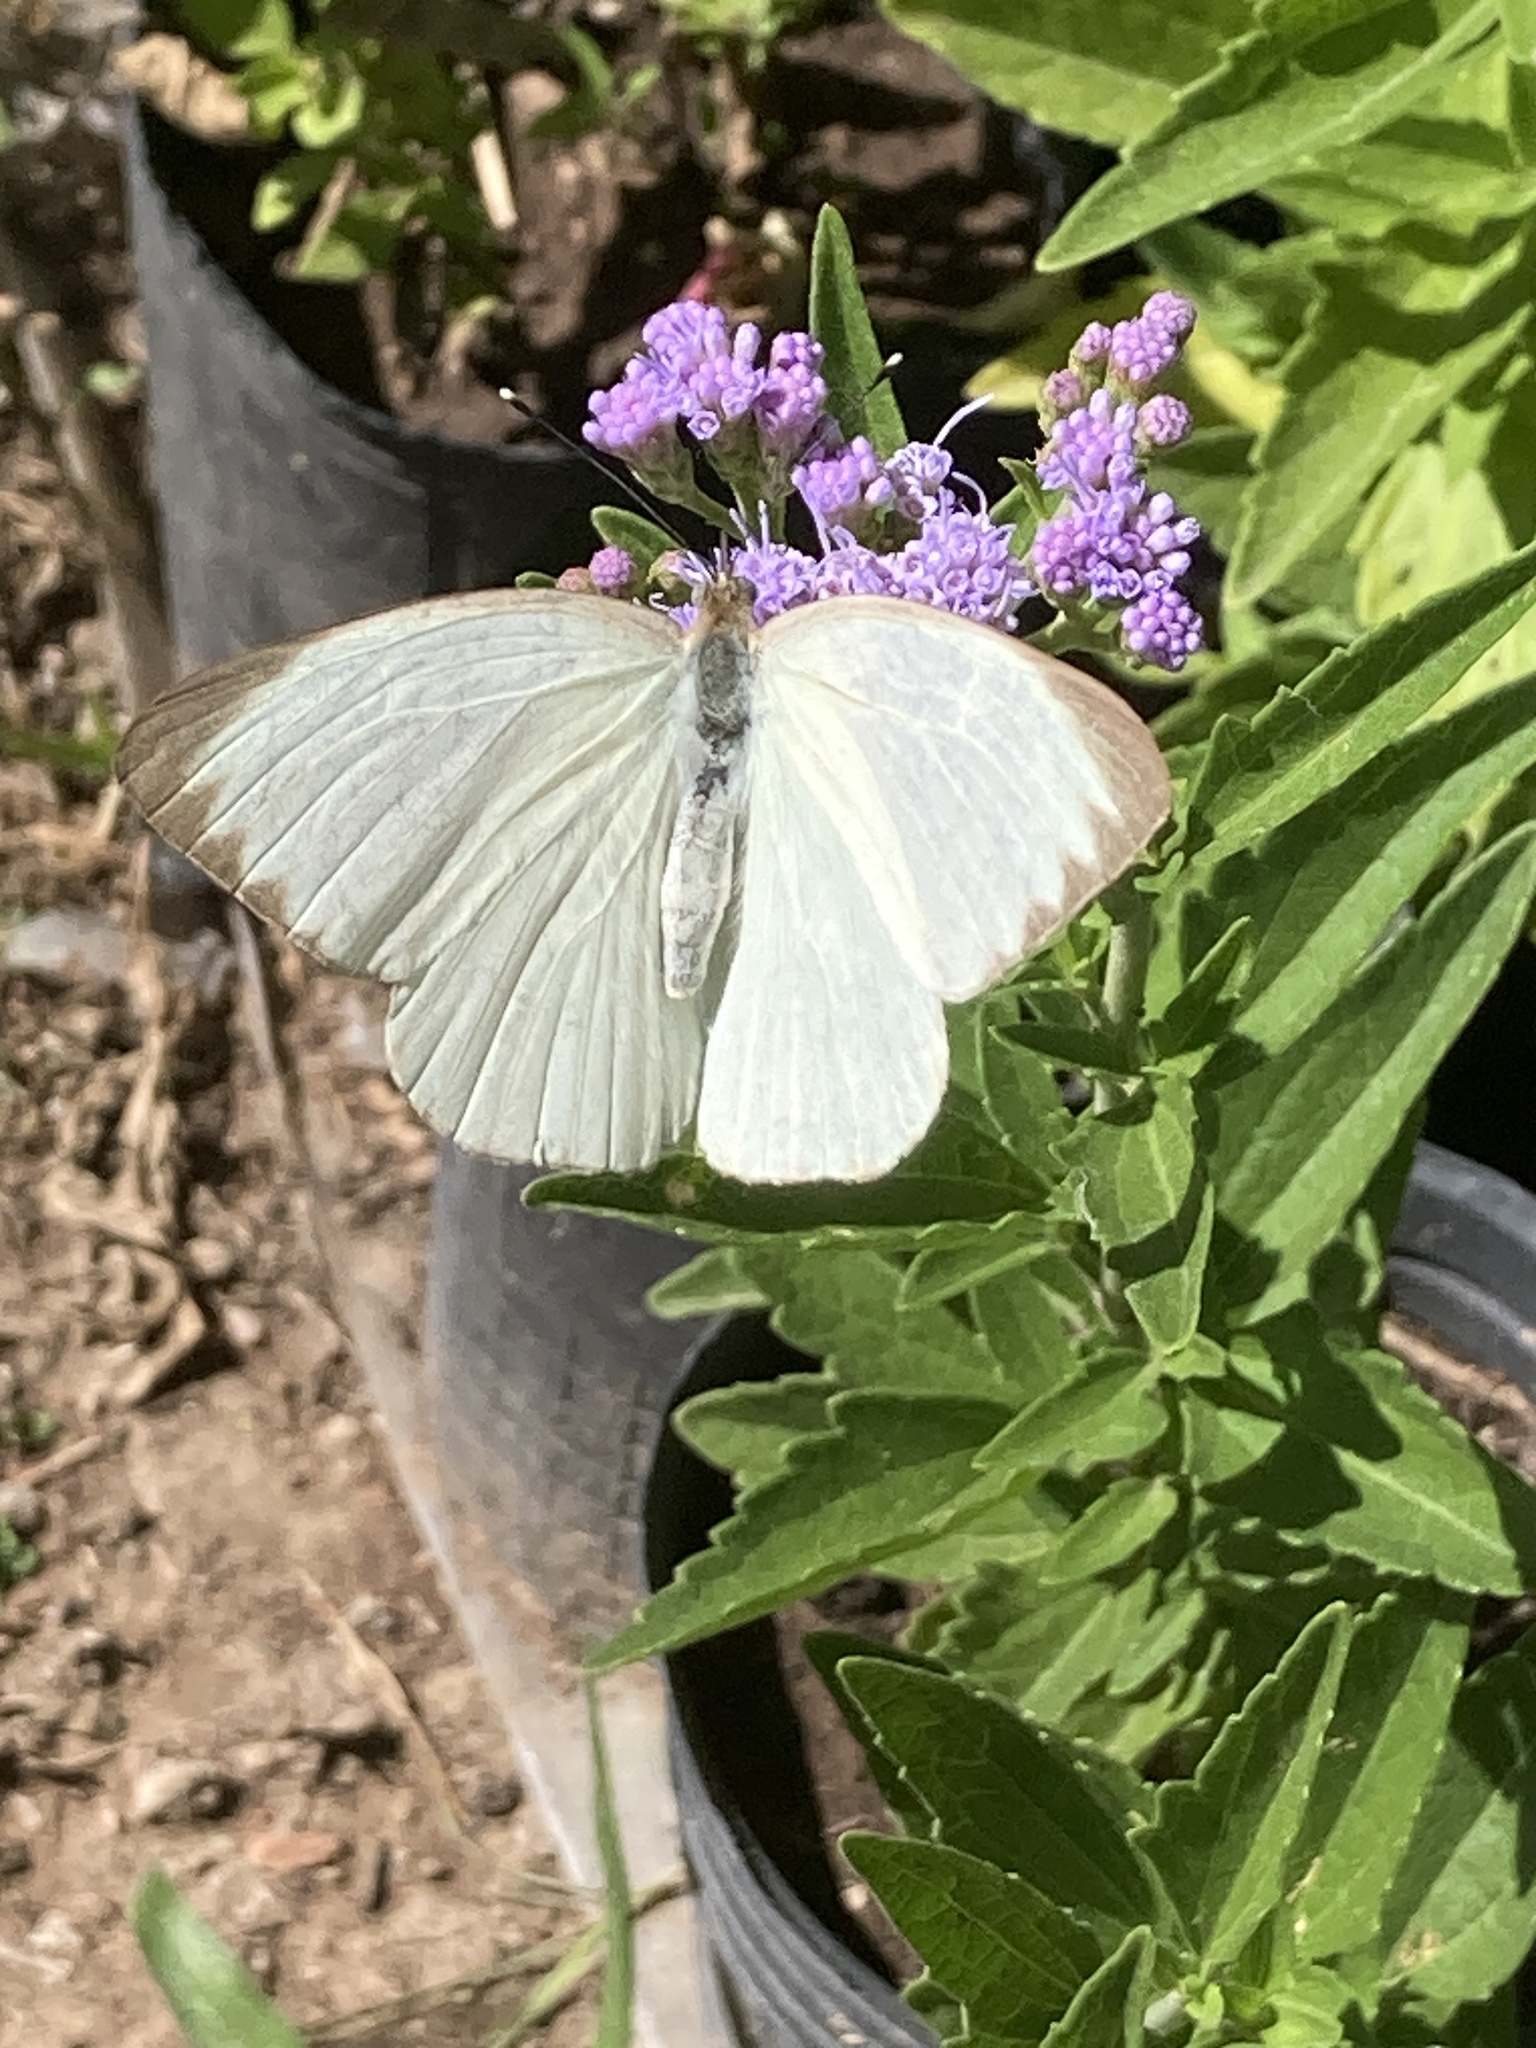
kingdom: Animalia
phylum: Arthropoda
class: Insecta
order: Lepidoptera
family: Pieridae
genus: Ascia
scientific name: Ascia monuste
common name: Great southern white
